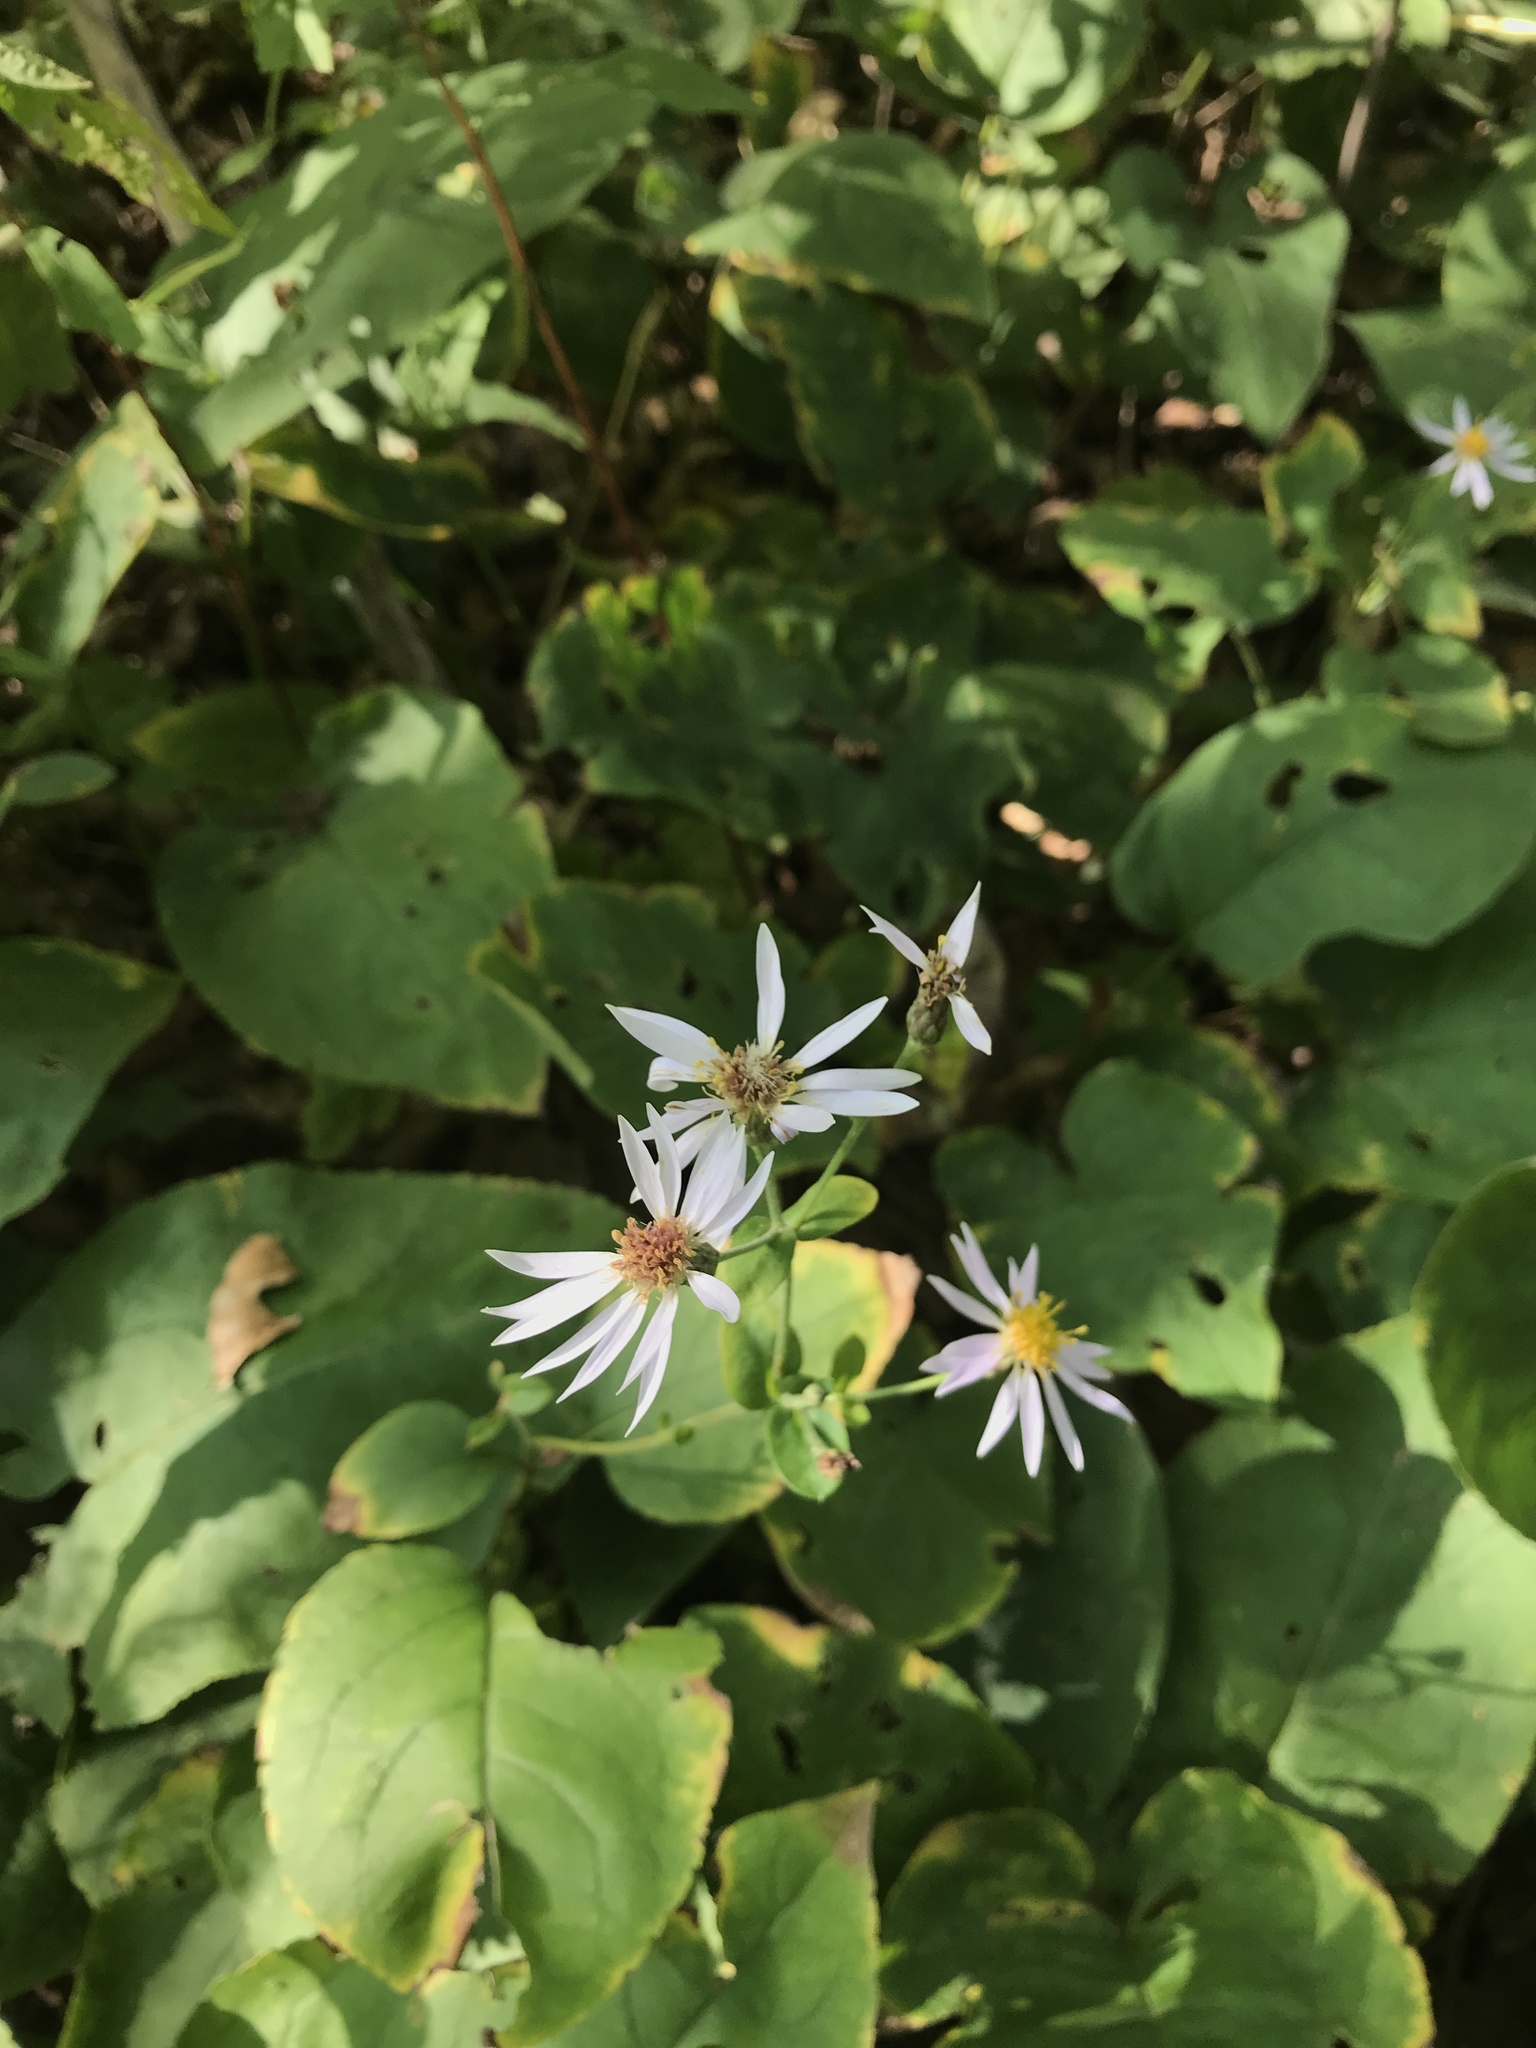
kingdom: Plantae
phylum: Tracheophyta
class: Magnoliopsida
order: Asterales
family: Asteraceae
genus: Eurybia
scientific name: Eurybia macrophylla
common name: Big-leaved aster
